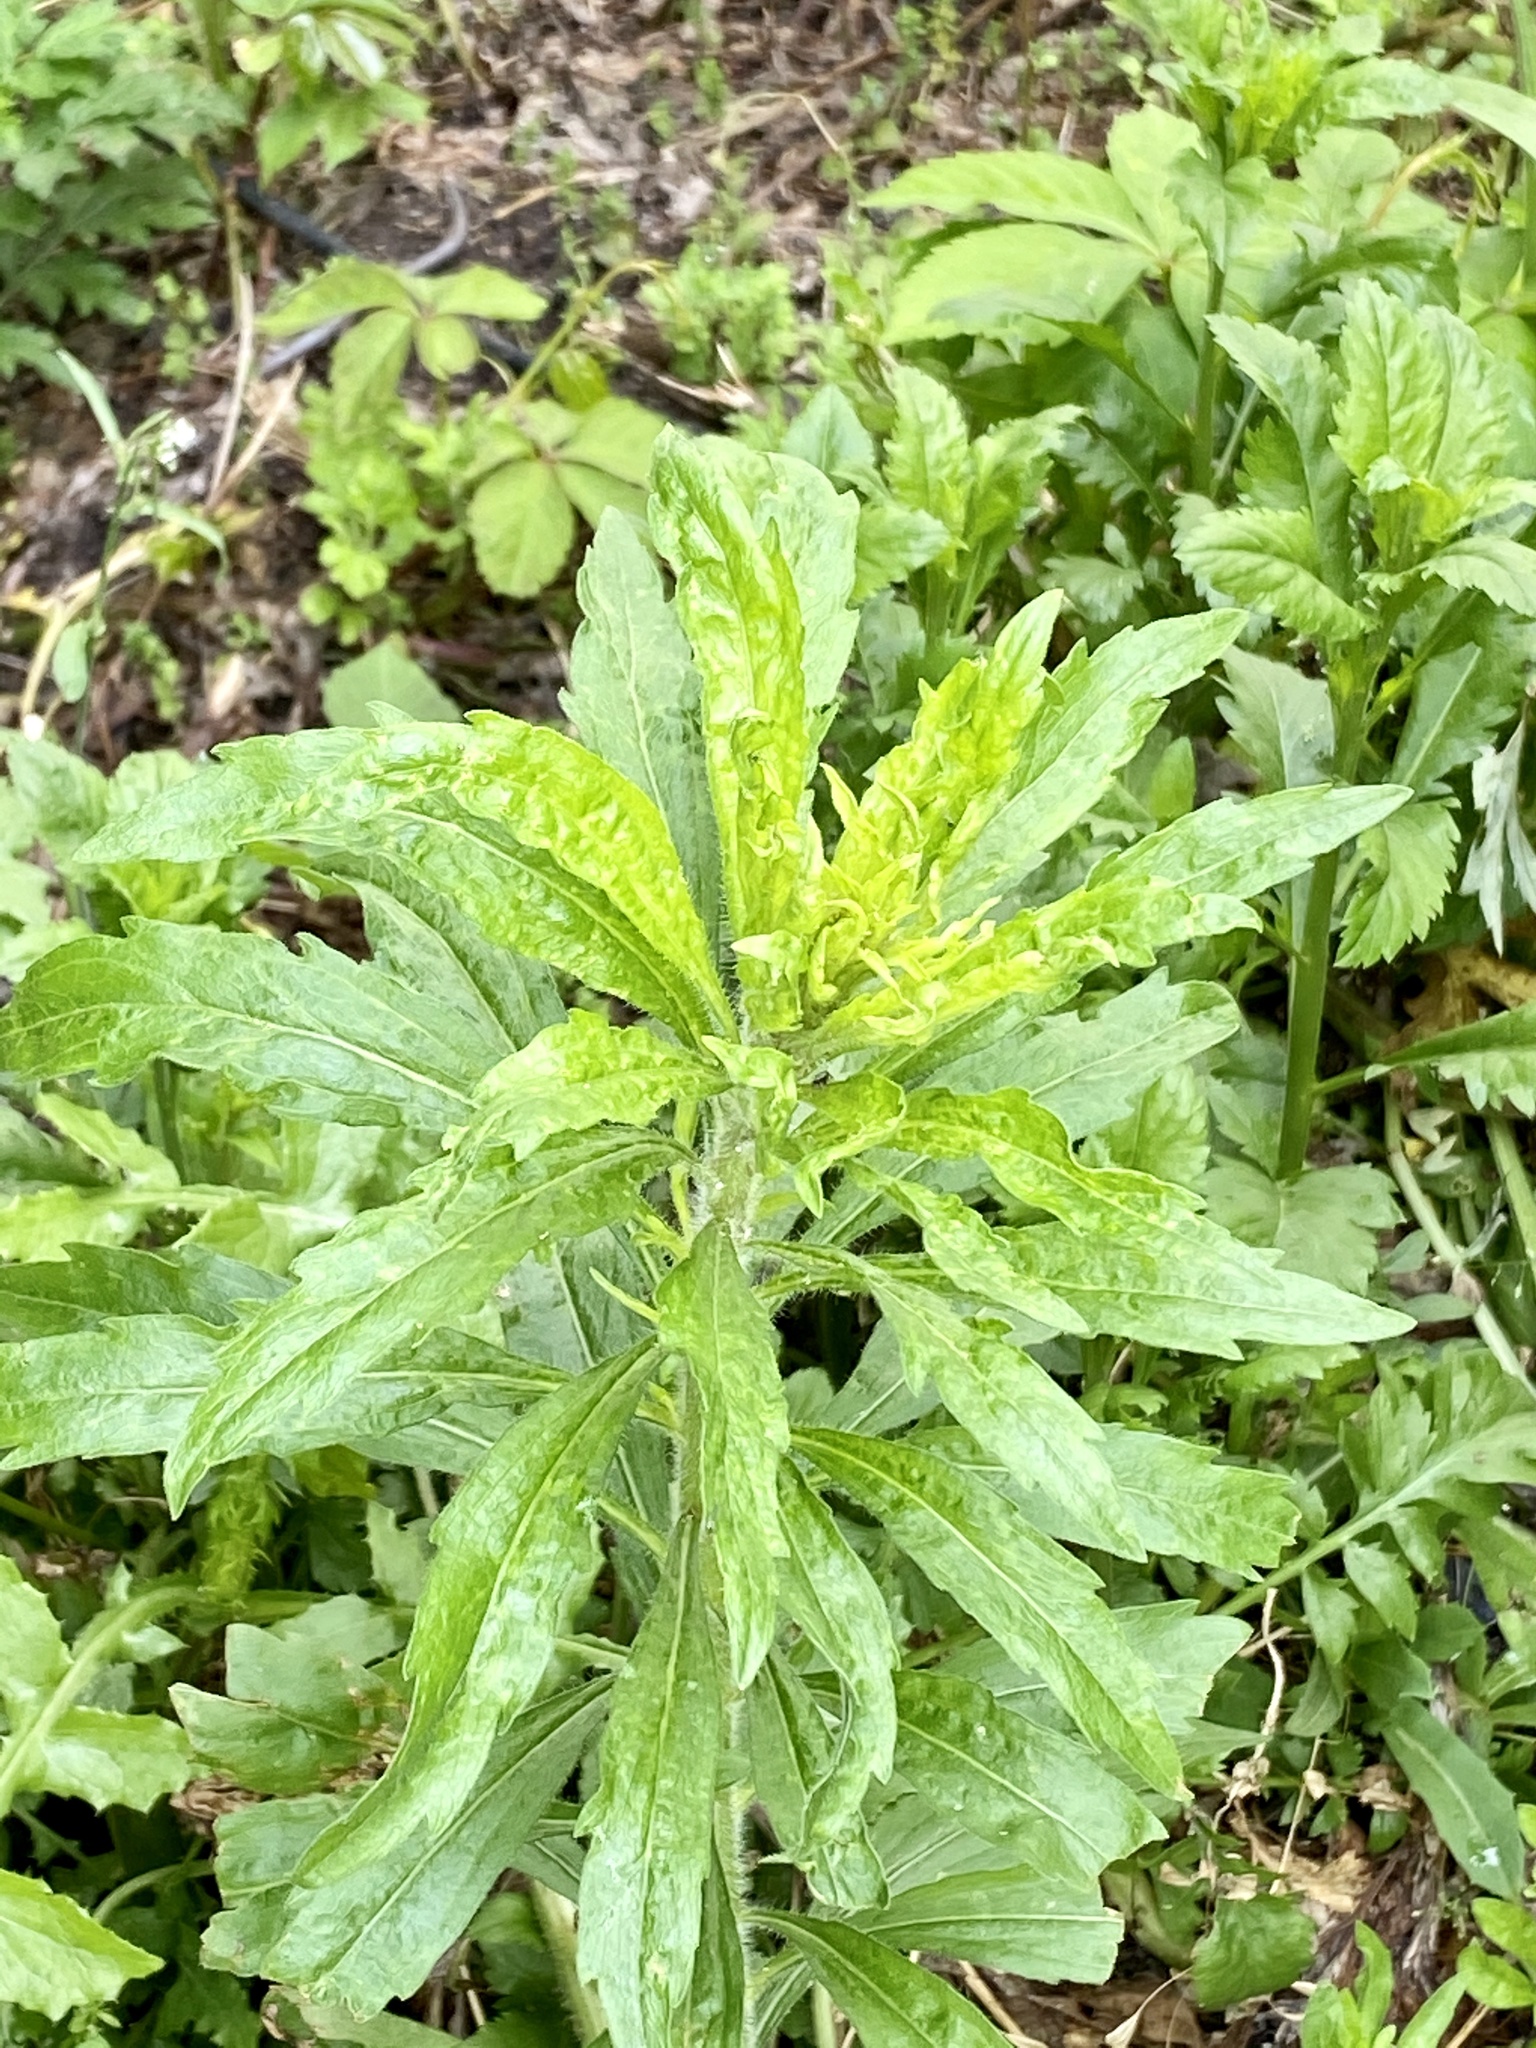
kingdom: Plantae
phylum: Tracheophyta
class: Magnoliopsida
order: Asterales
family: Asteraceae
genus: Erigeron
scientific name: Erigeron canadensis
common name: Canadian fleabane
